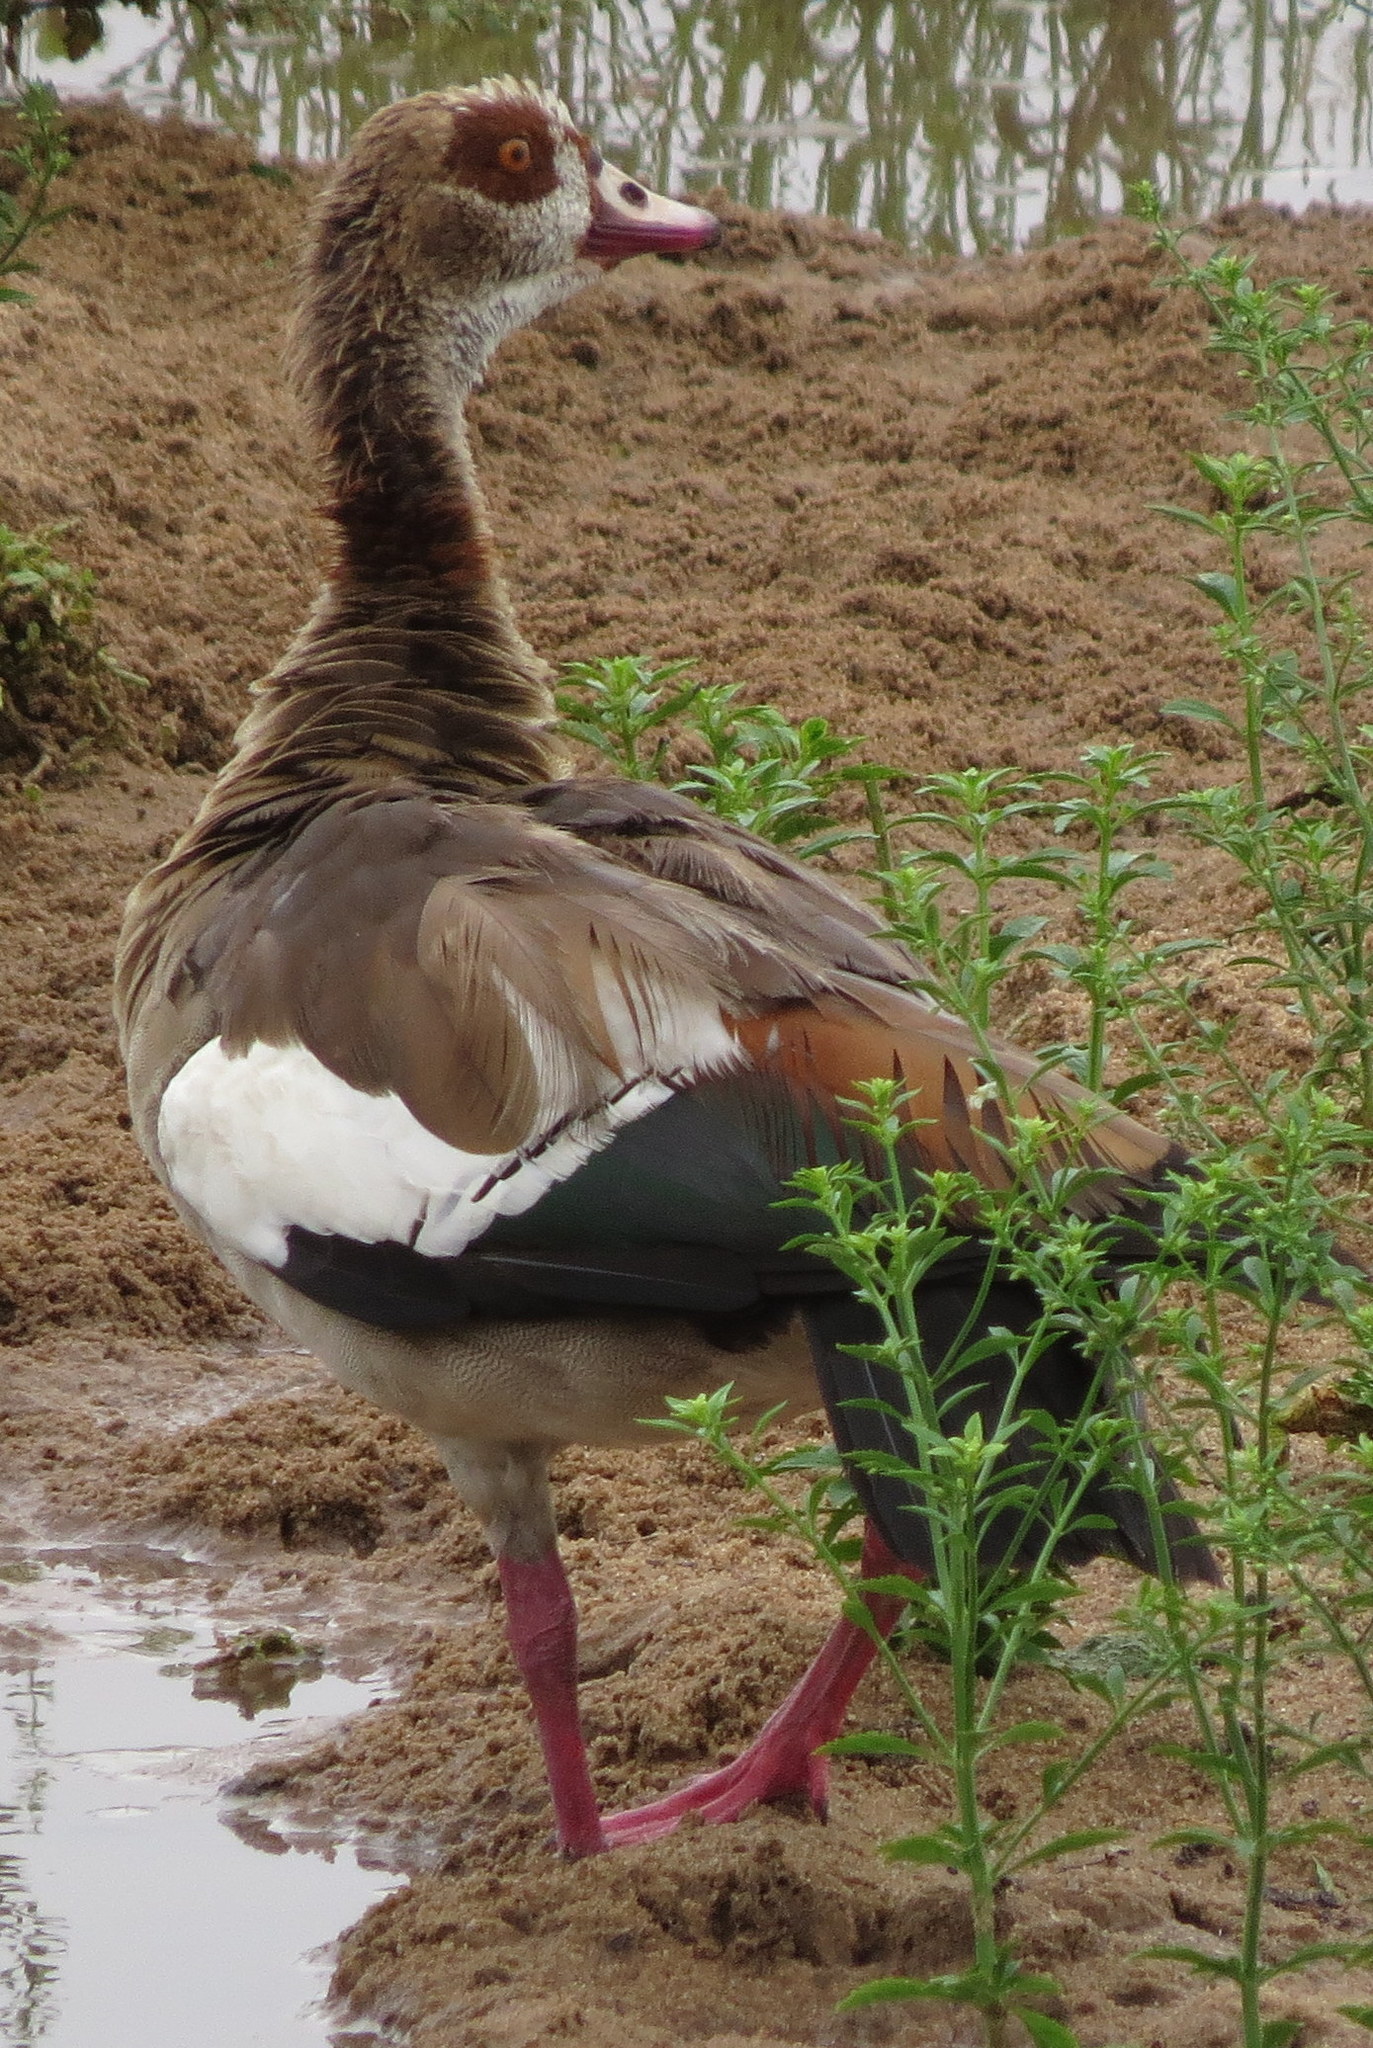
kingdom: Animalia
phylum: Chordata
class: Aves
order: Anseriformes
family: Anatidae
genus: Alopochen
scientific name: Alopochen aegyptiaca
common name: Egyptian goose
